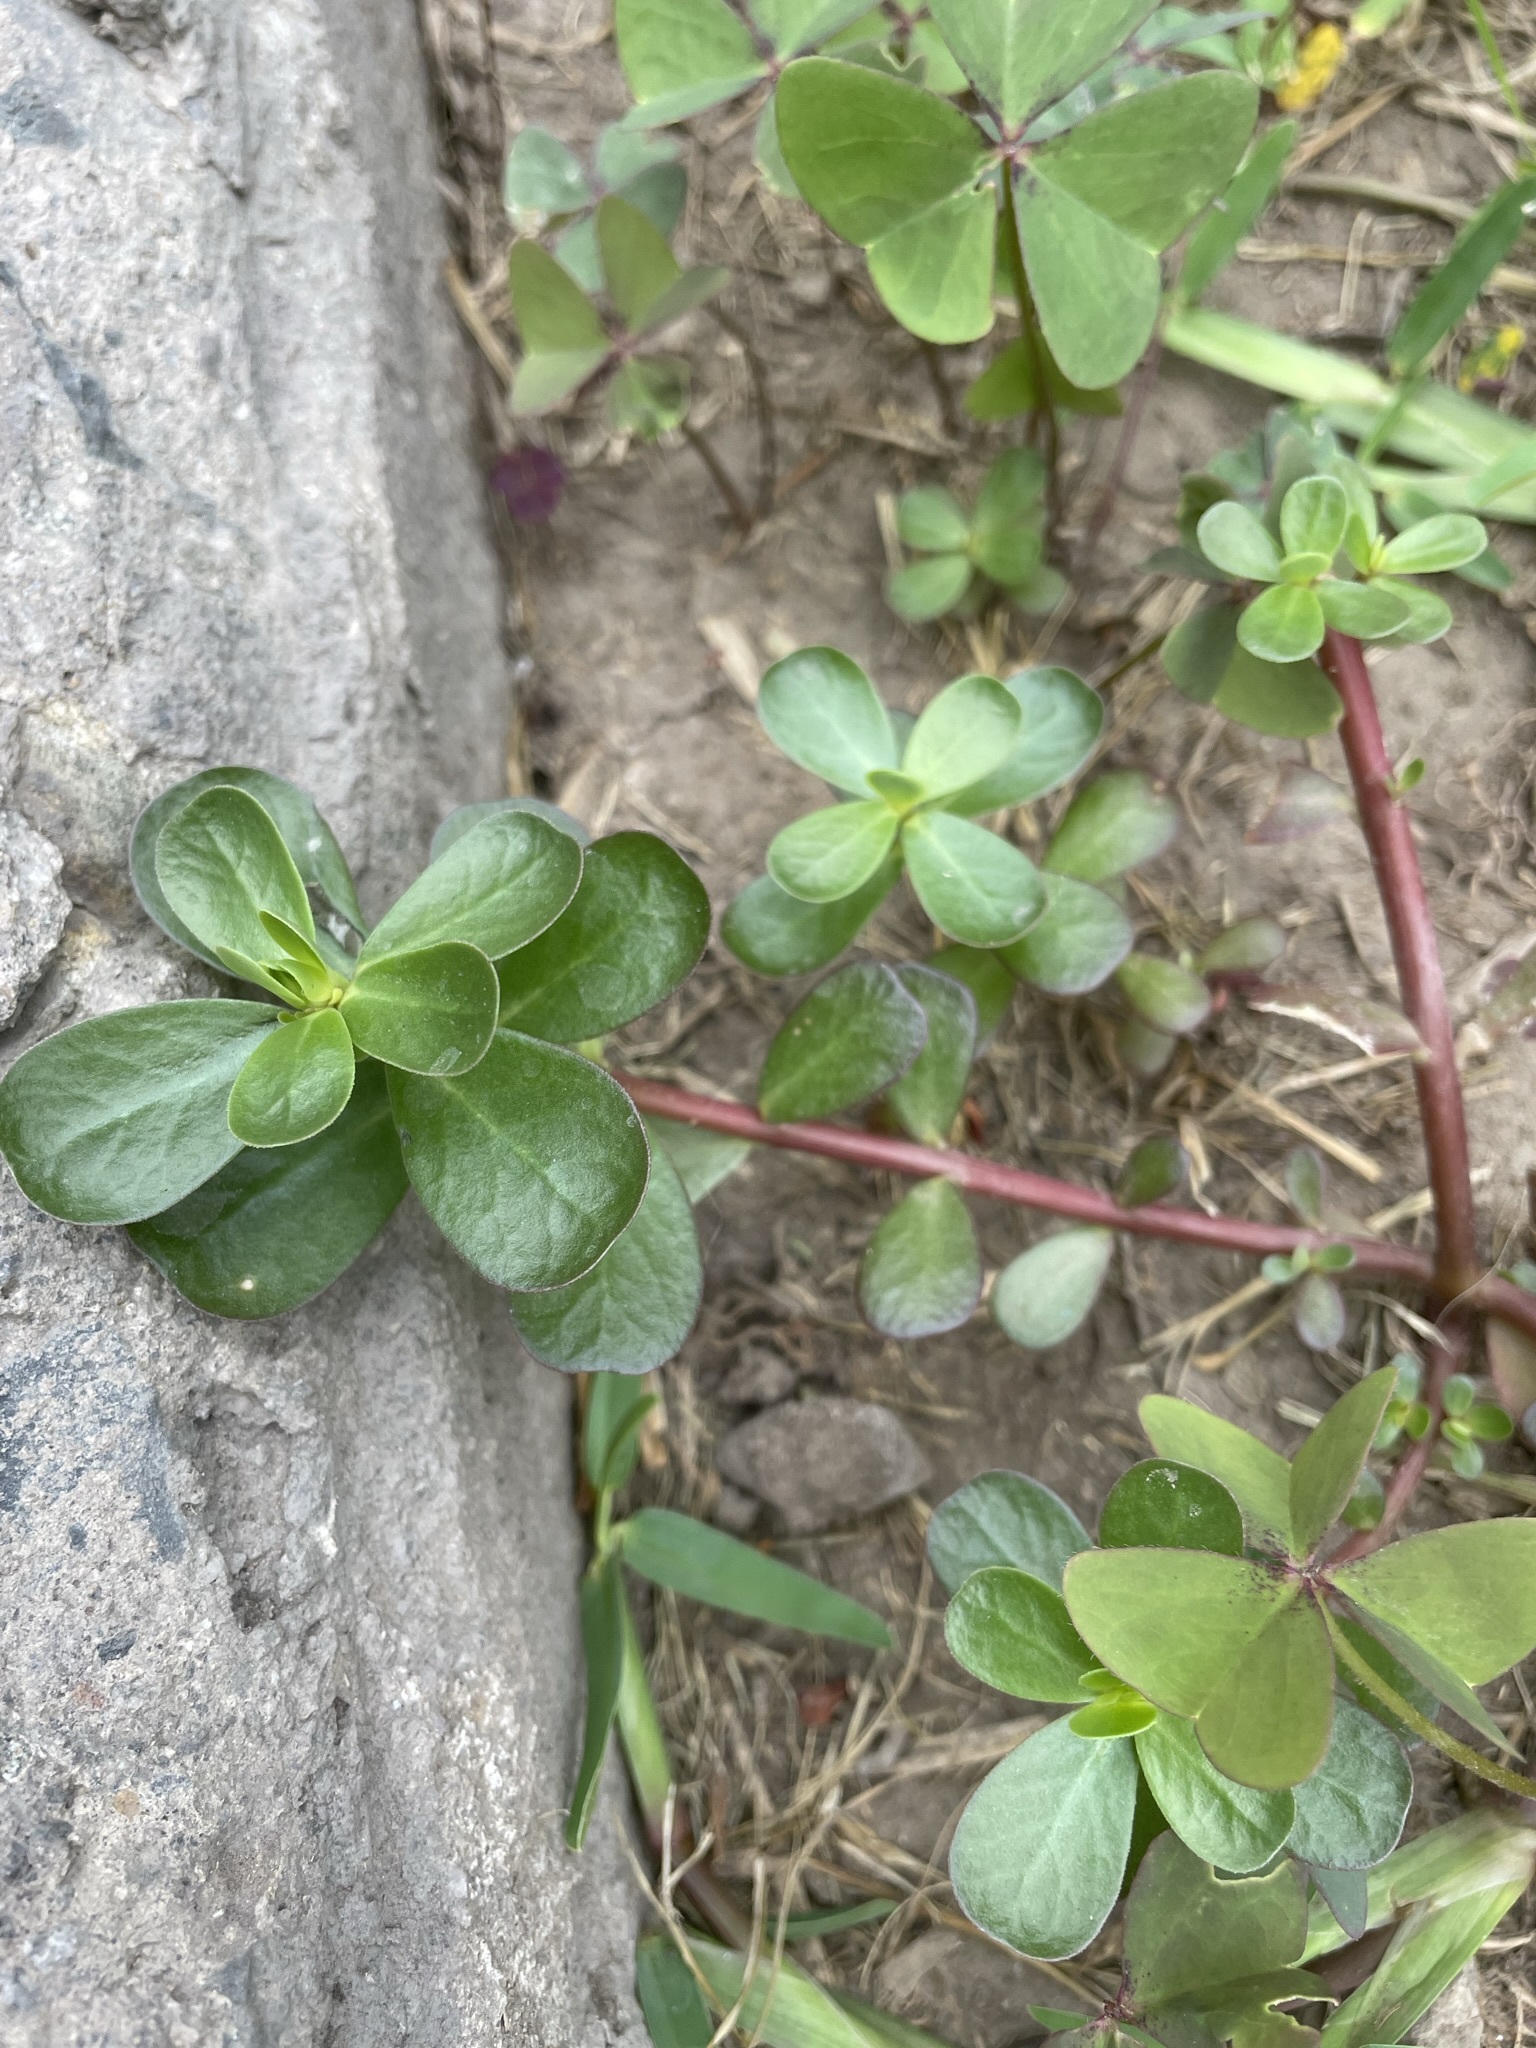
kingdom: Plantae
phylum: Tracheophyta
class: Magnoliopsida
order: Caryophyllales
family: Portulacaceae
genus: Portulaca
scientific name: Portulaca oleracea
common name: Common purslane
